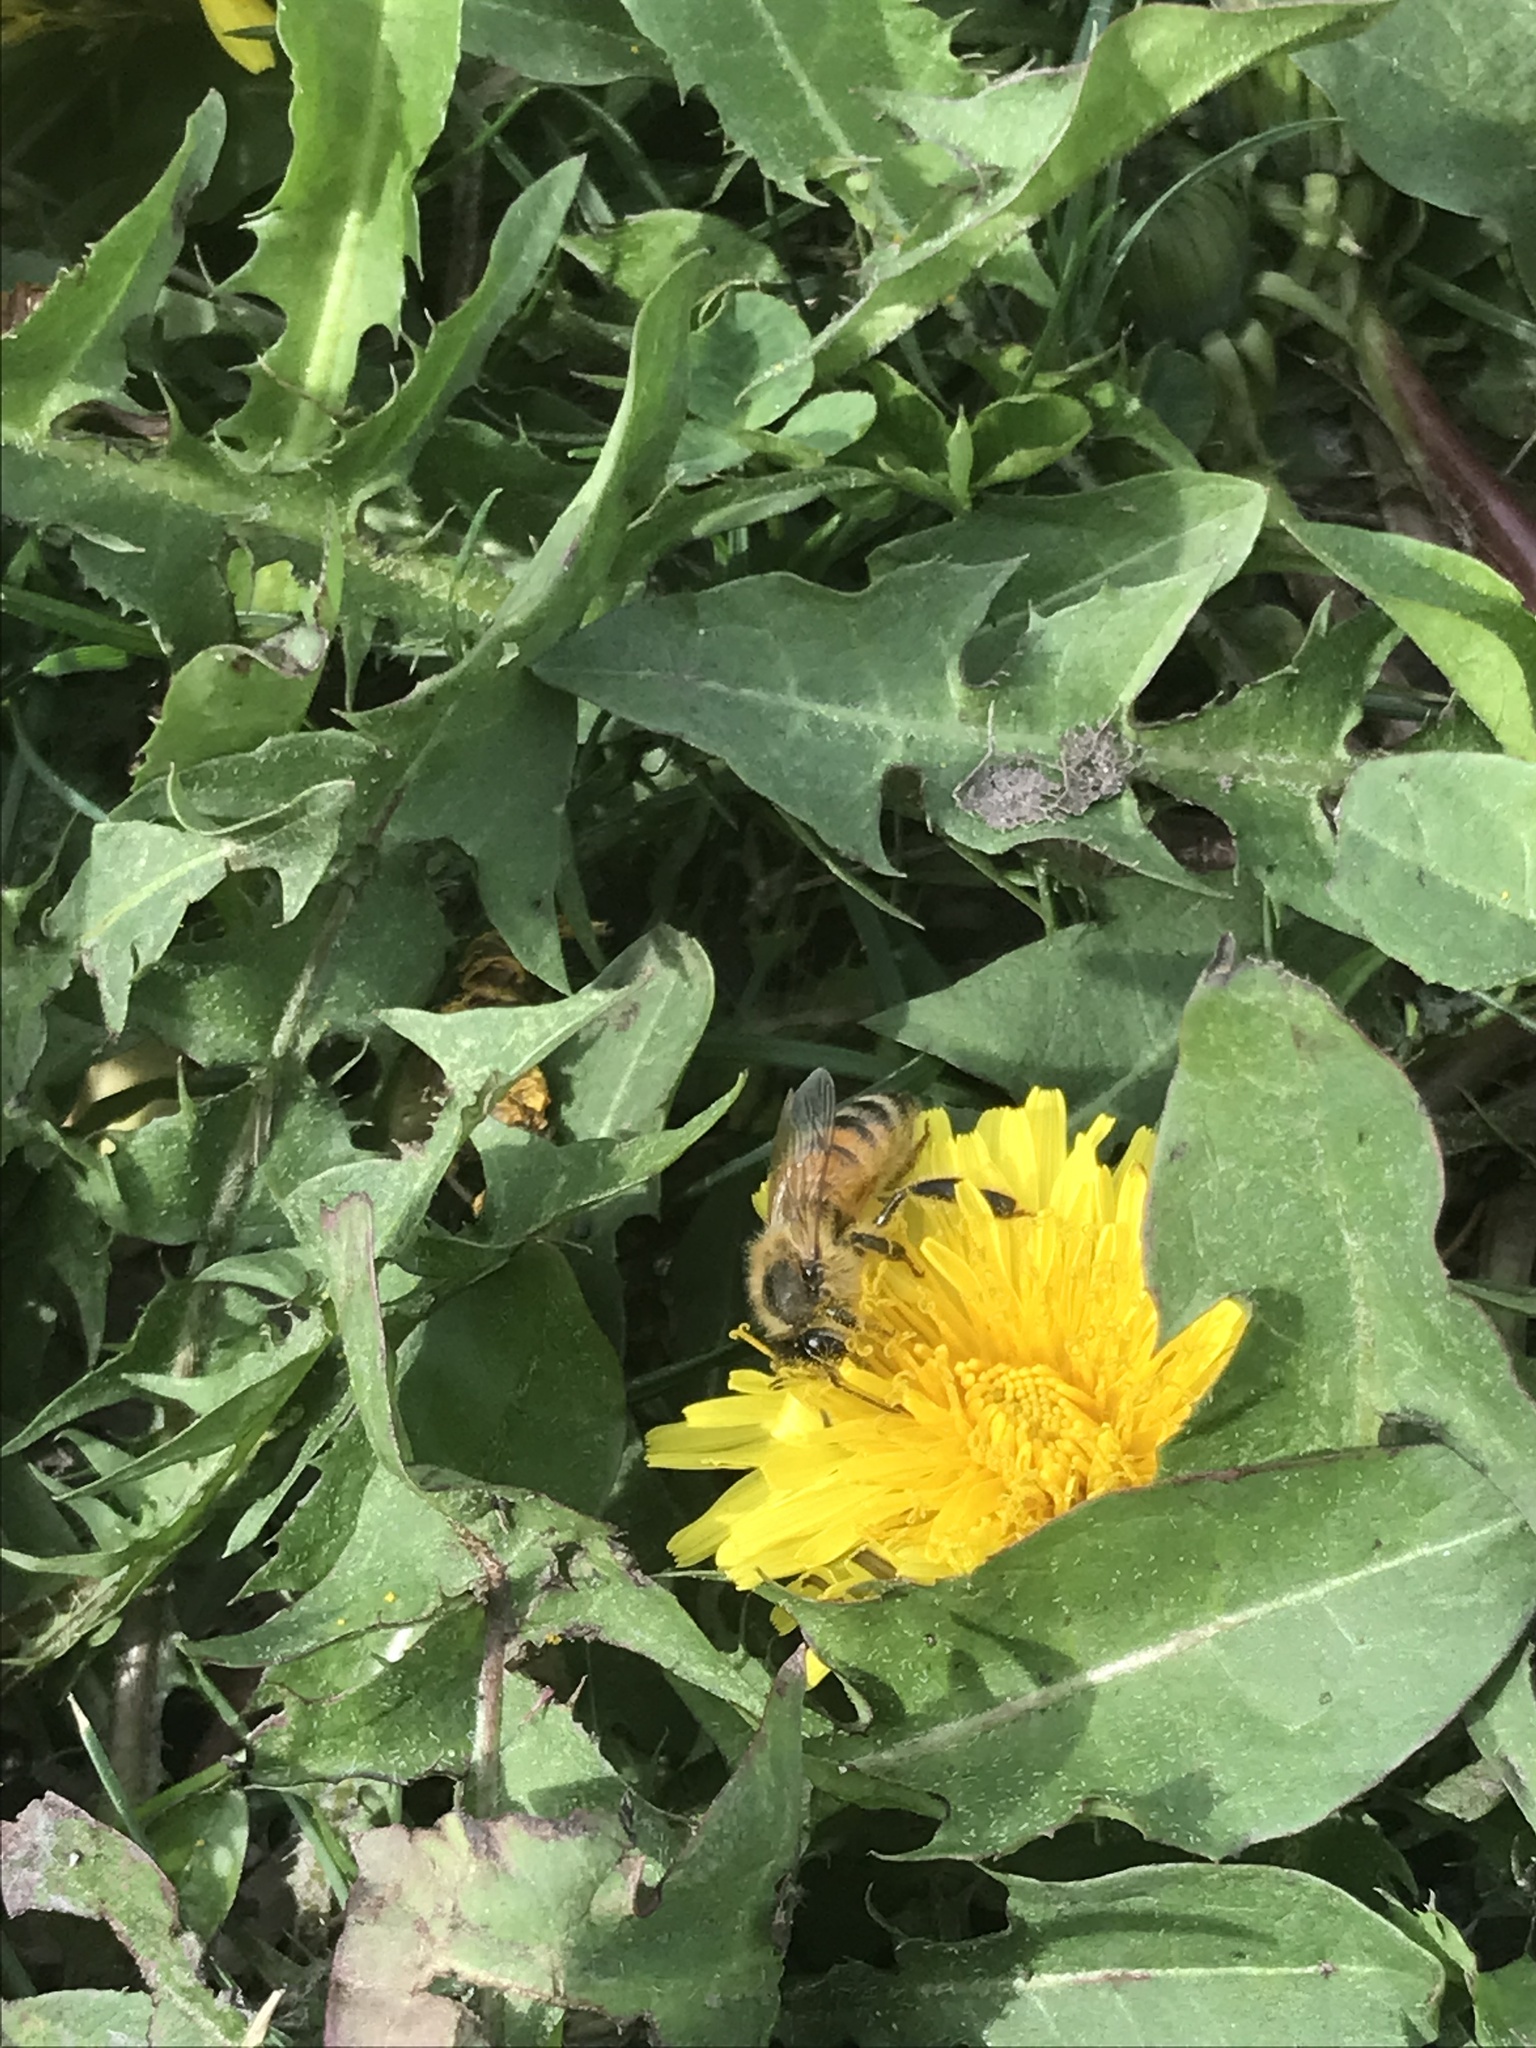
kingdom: Animalia
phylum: Arthropoda
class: Insecta
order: Hymenoptera
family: Apidae
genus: Apis
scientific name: Apis mellifera
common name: Honey bee
